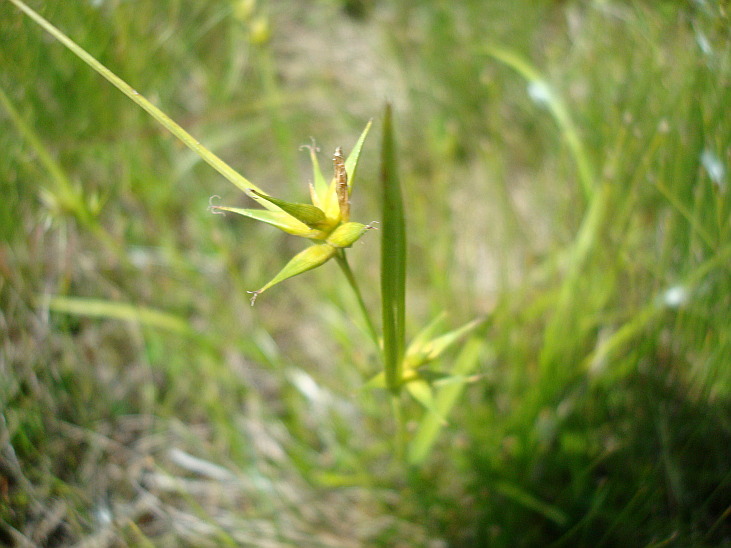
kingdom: Plantae
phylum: Tracheophyta
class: Liliopsida
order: Poales
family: Cyperaceae
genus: Carex
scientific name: Carex dolichocarpa
